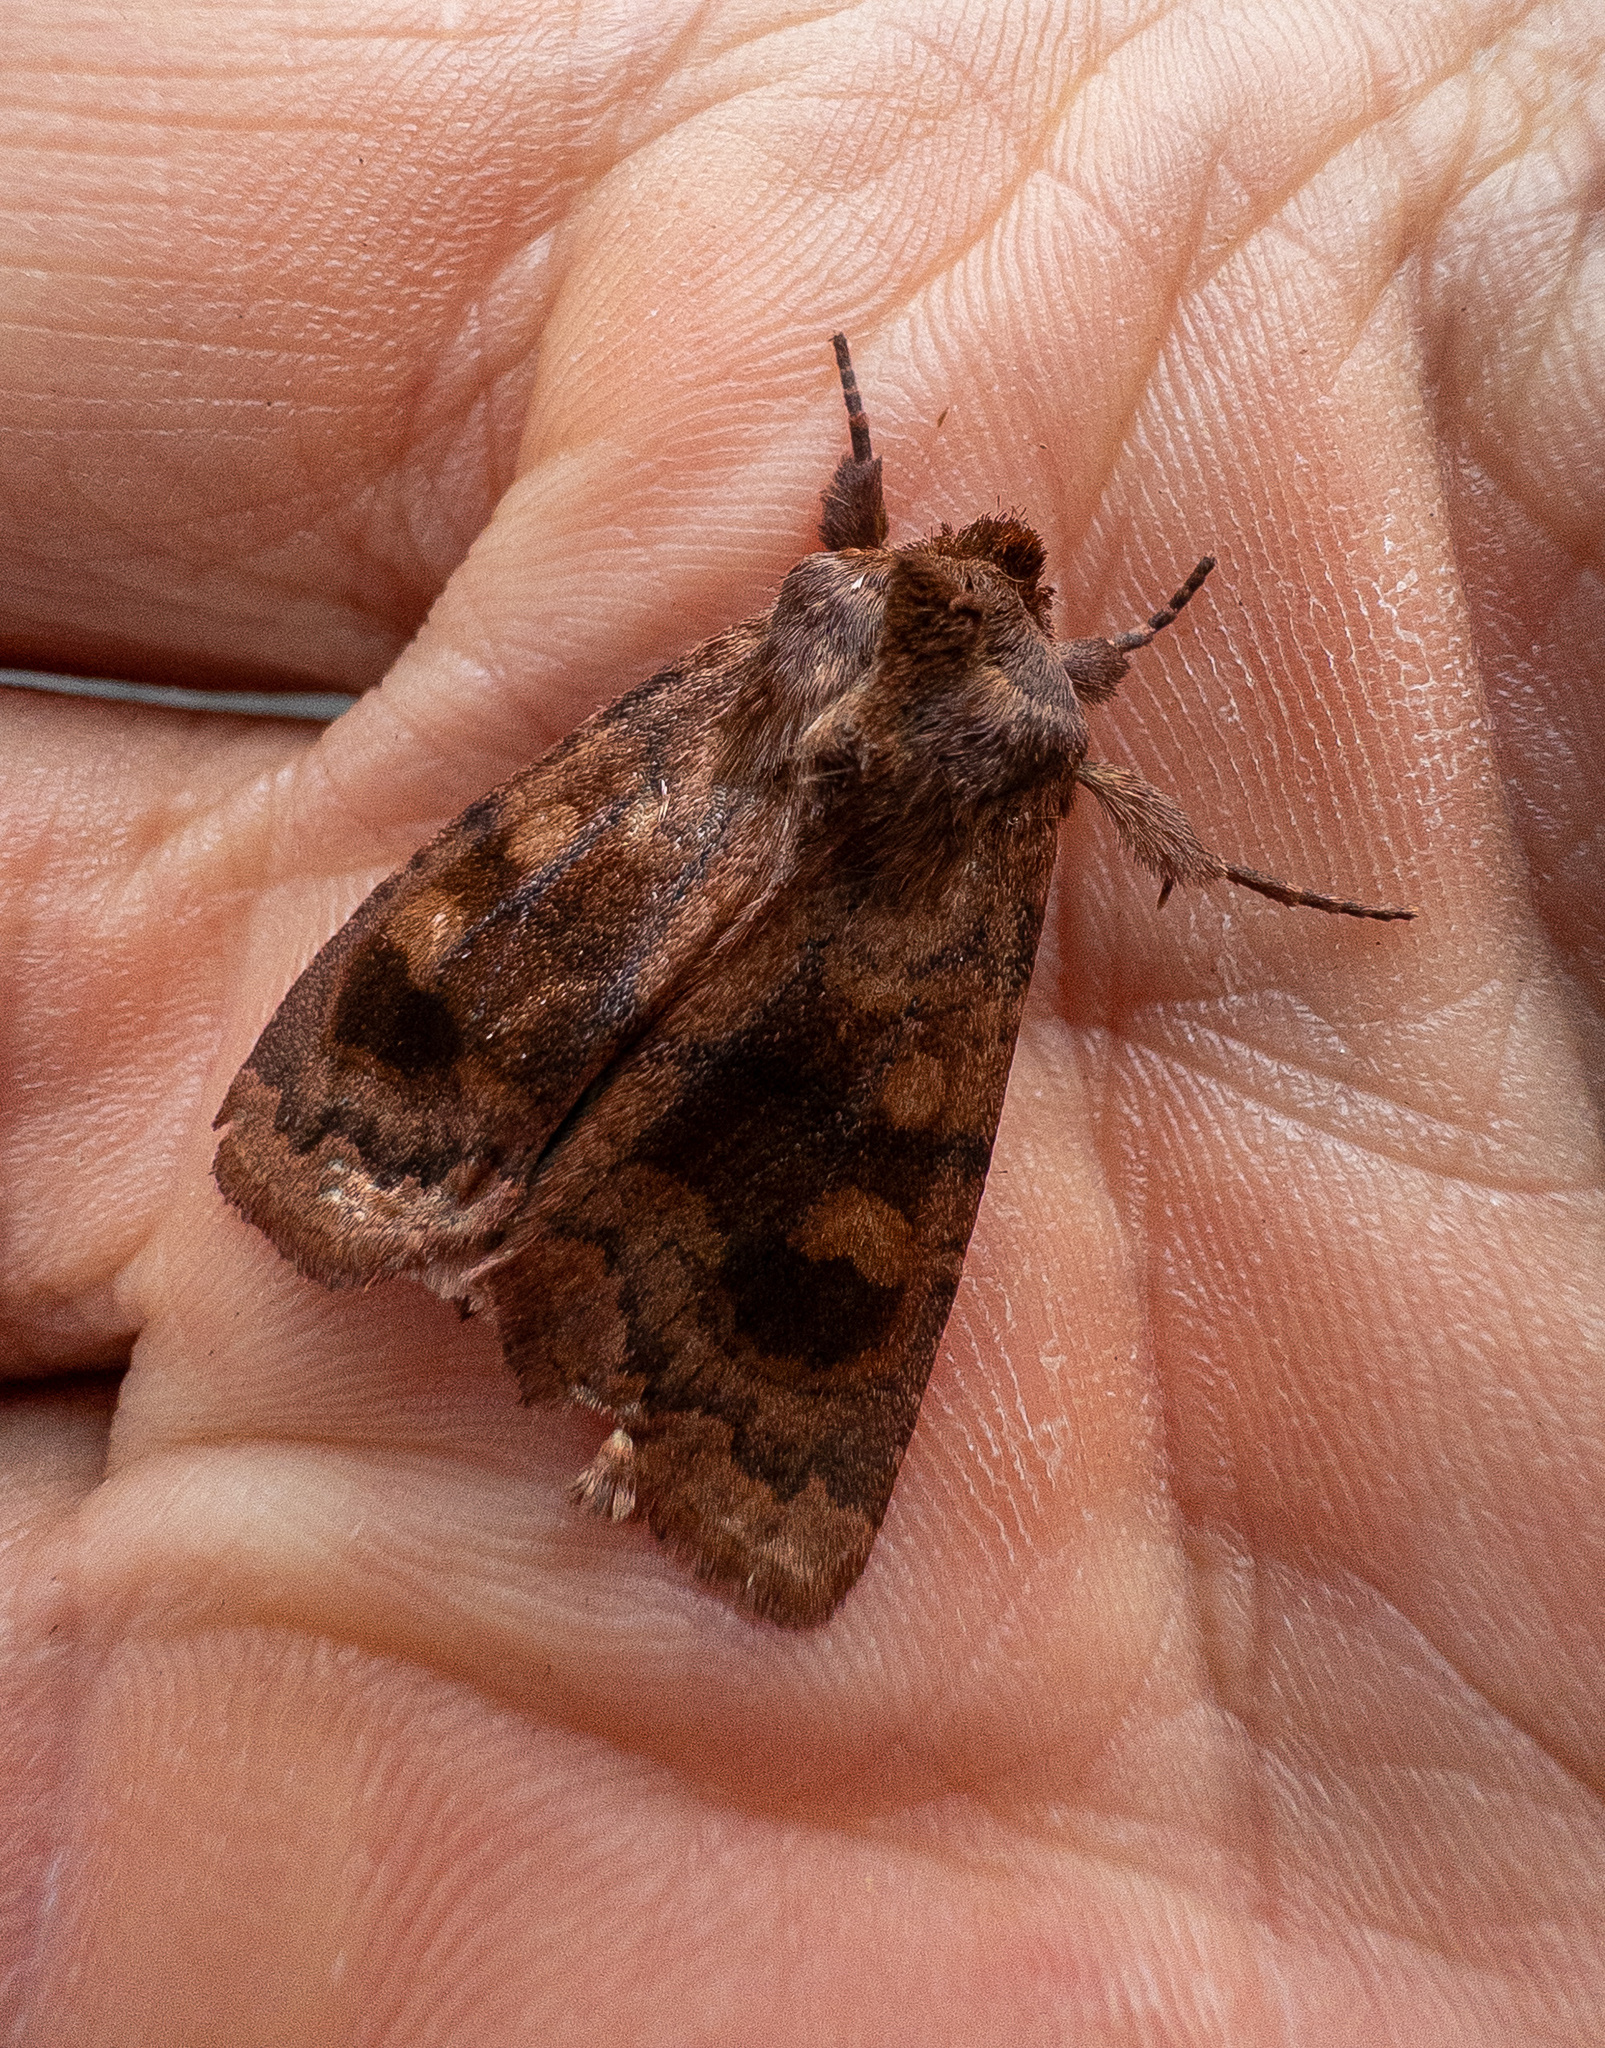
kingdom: Animalia
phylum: Arthropoda
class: Insecta
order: Lepidoptera
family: Noctuidae
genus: Nephelodes
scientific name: Nephelodes minians
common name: Bronzed cutworm
